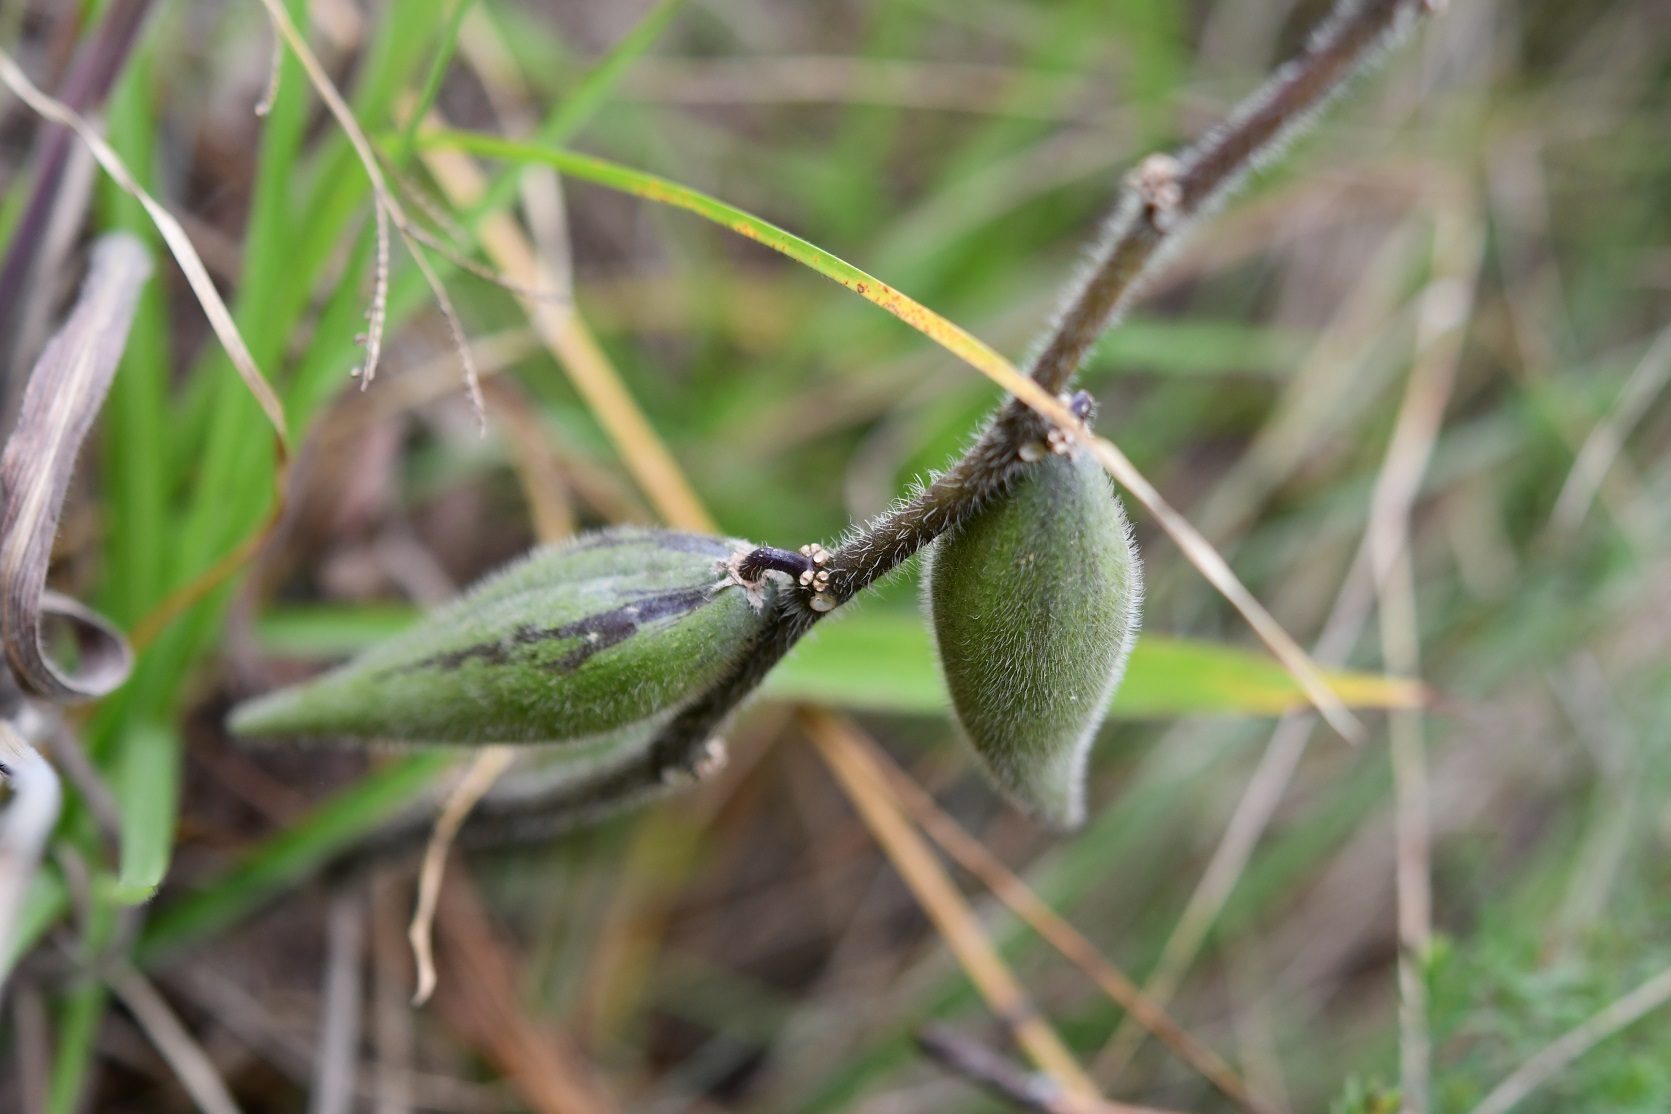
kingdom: Plantae
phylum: Tracheophyta
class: Magnoliopsida
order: Gentianales
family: Apocynaceae
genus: Pherotrichis
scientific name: Pherotrichis villosa
